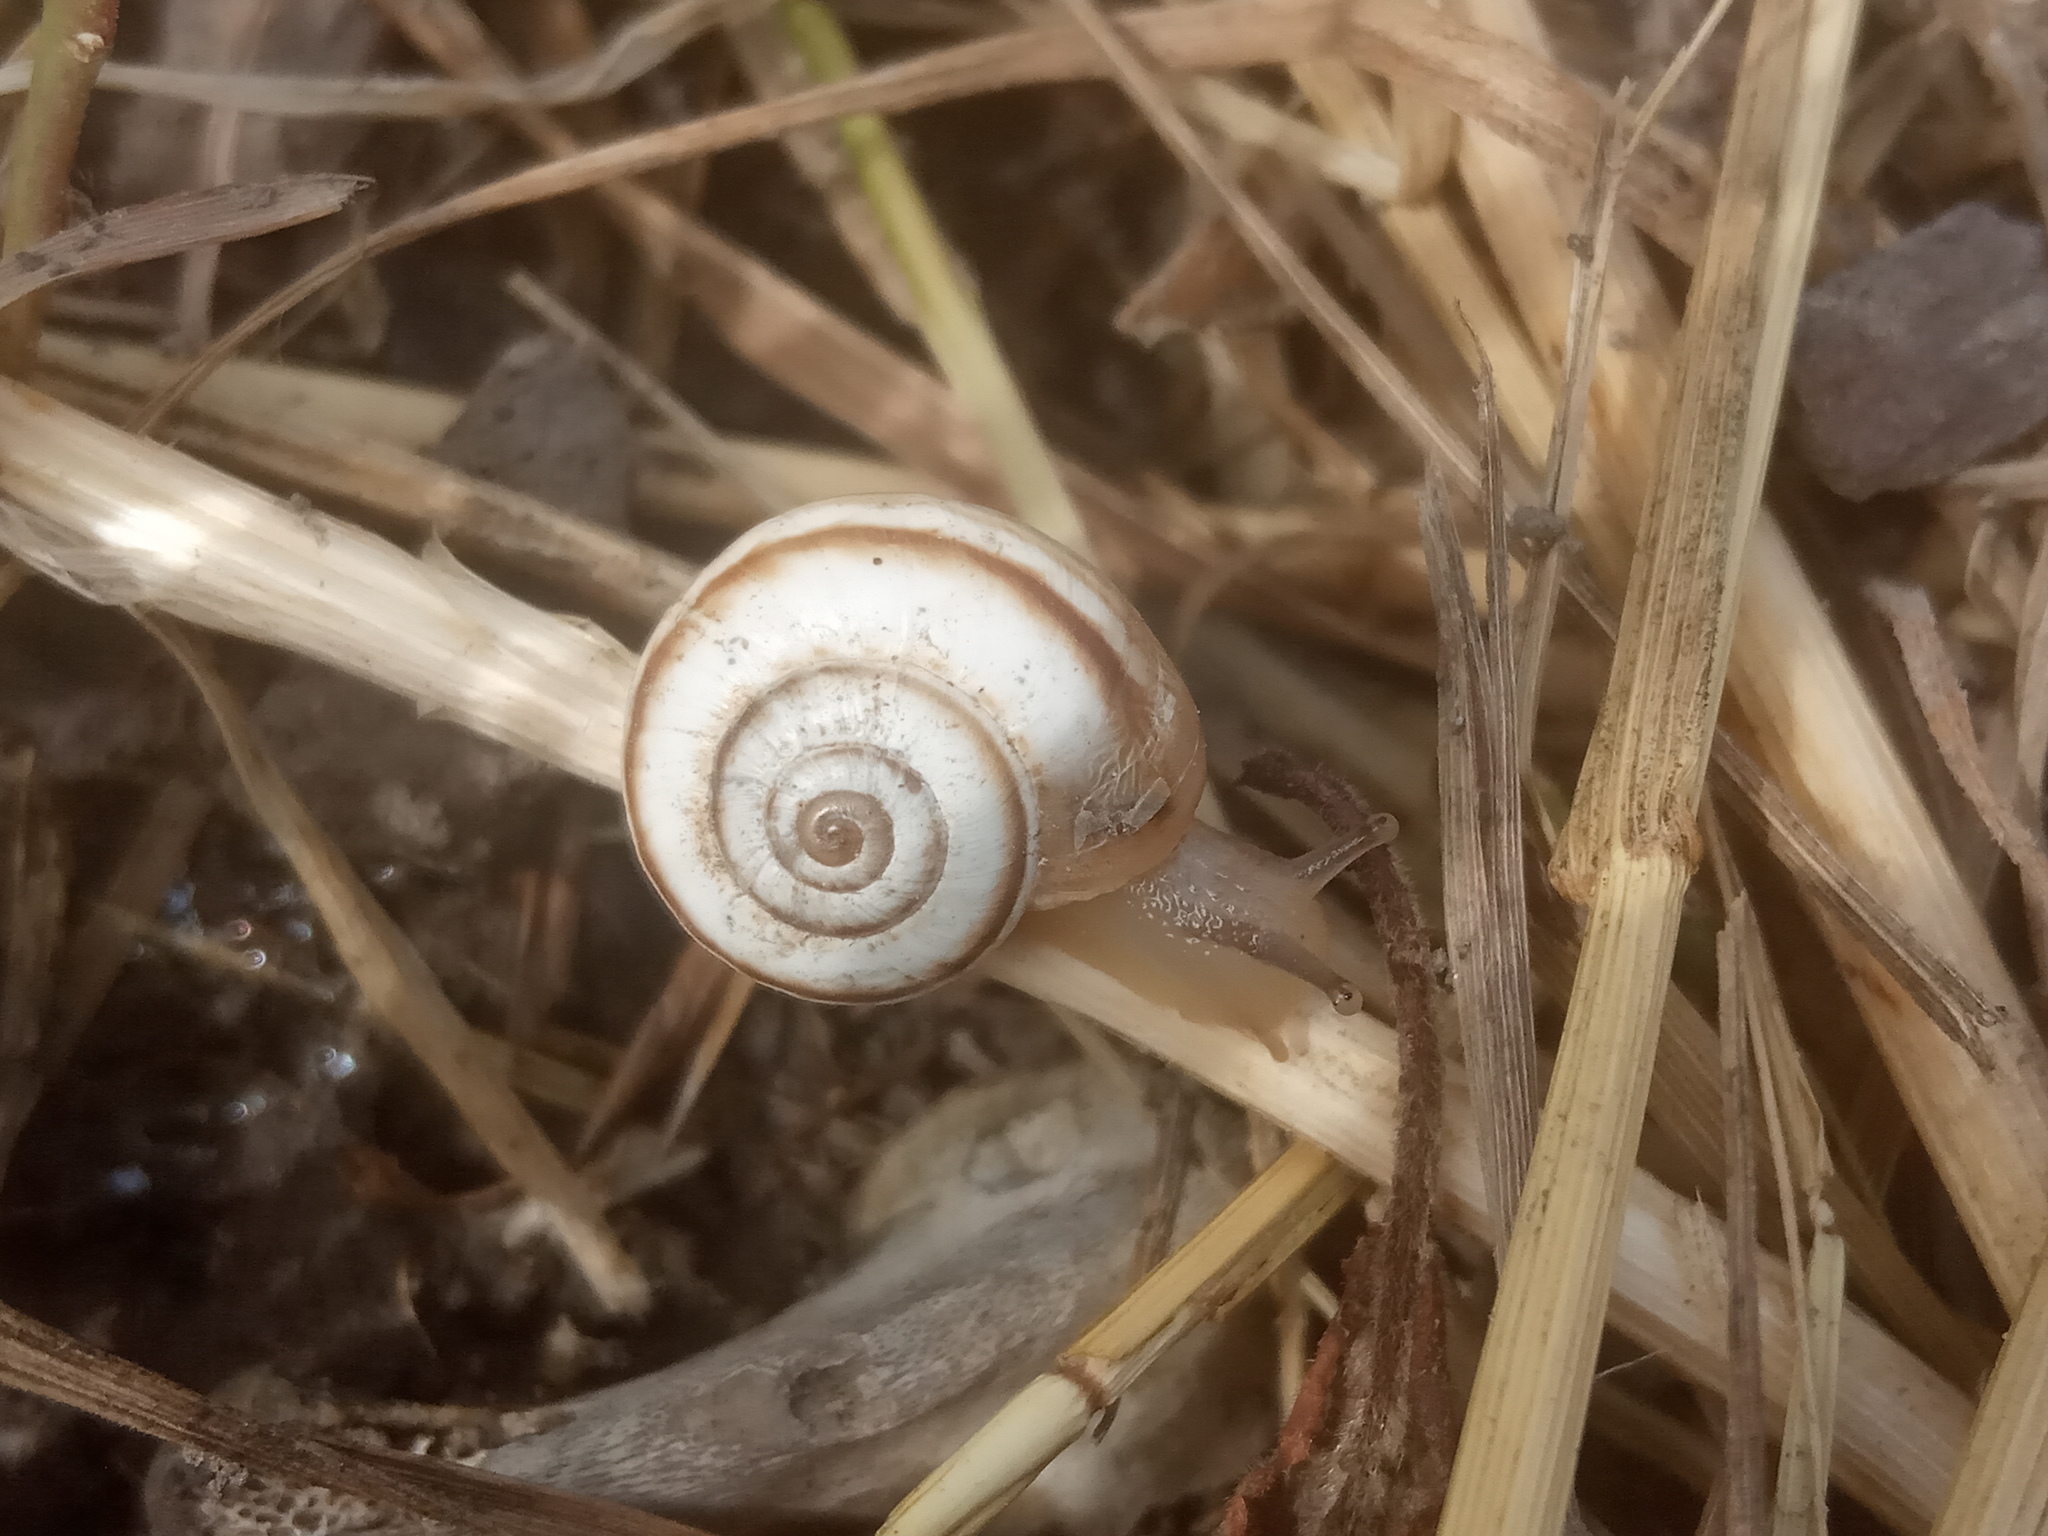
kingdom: Animalia
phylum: Mollusca
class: Gastropoda
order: Stylommatophora
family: Geomitridae
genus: Xeropicta
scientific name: Xeropicta derbentina
